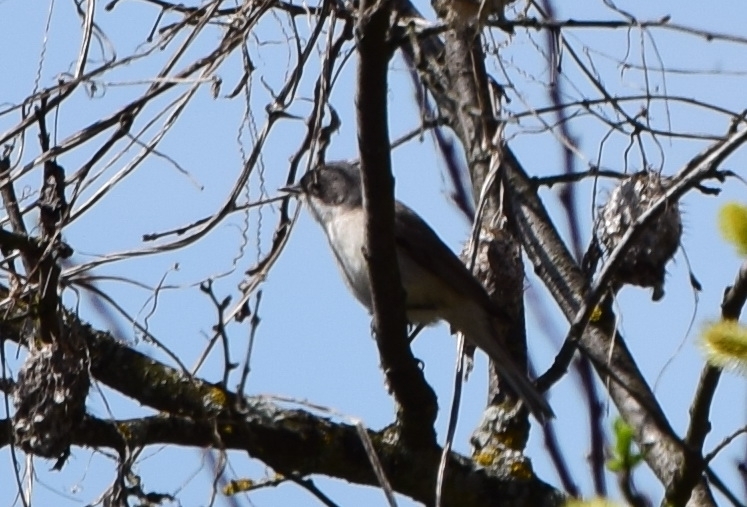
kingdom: Animalia
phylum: Chordata
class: Aves
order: Passeriformes
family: Sylviidae
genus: Sylvia
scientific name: Sylvia curruca
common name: Lesser whitethroat
